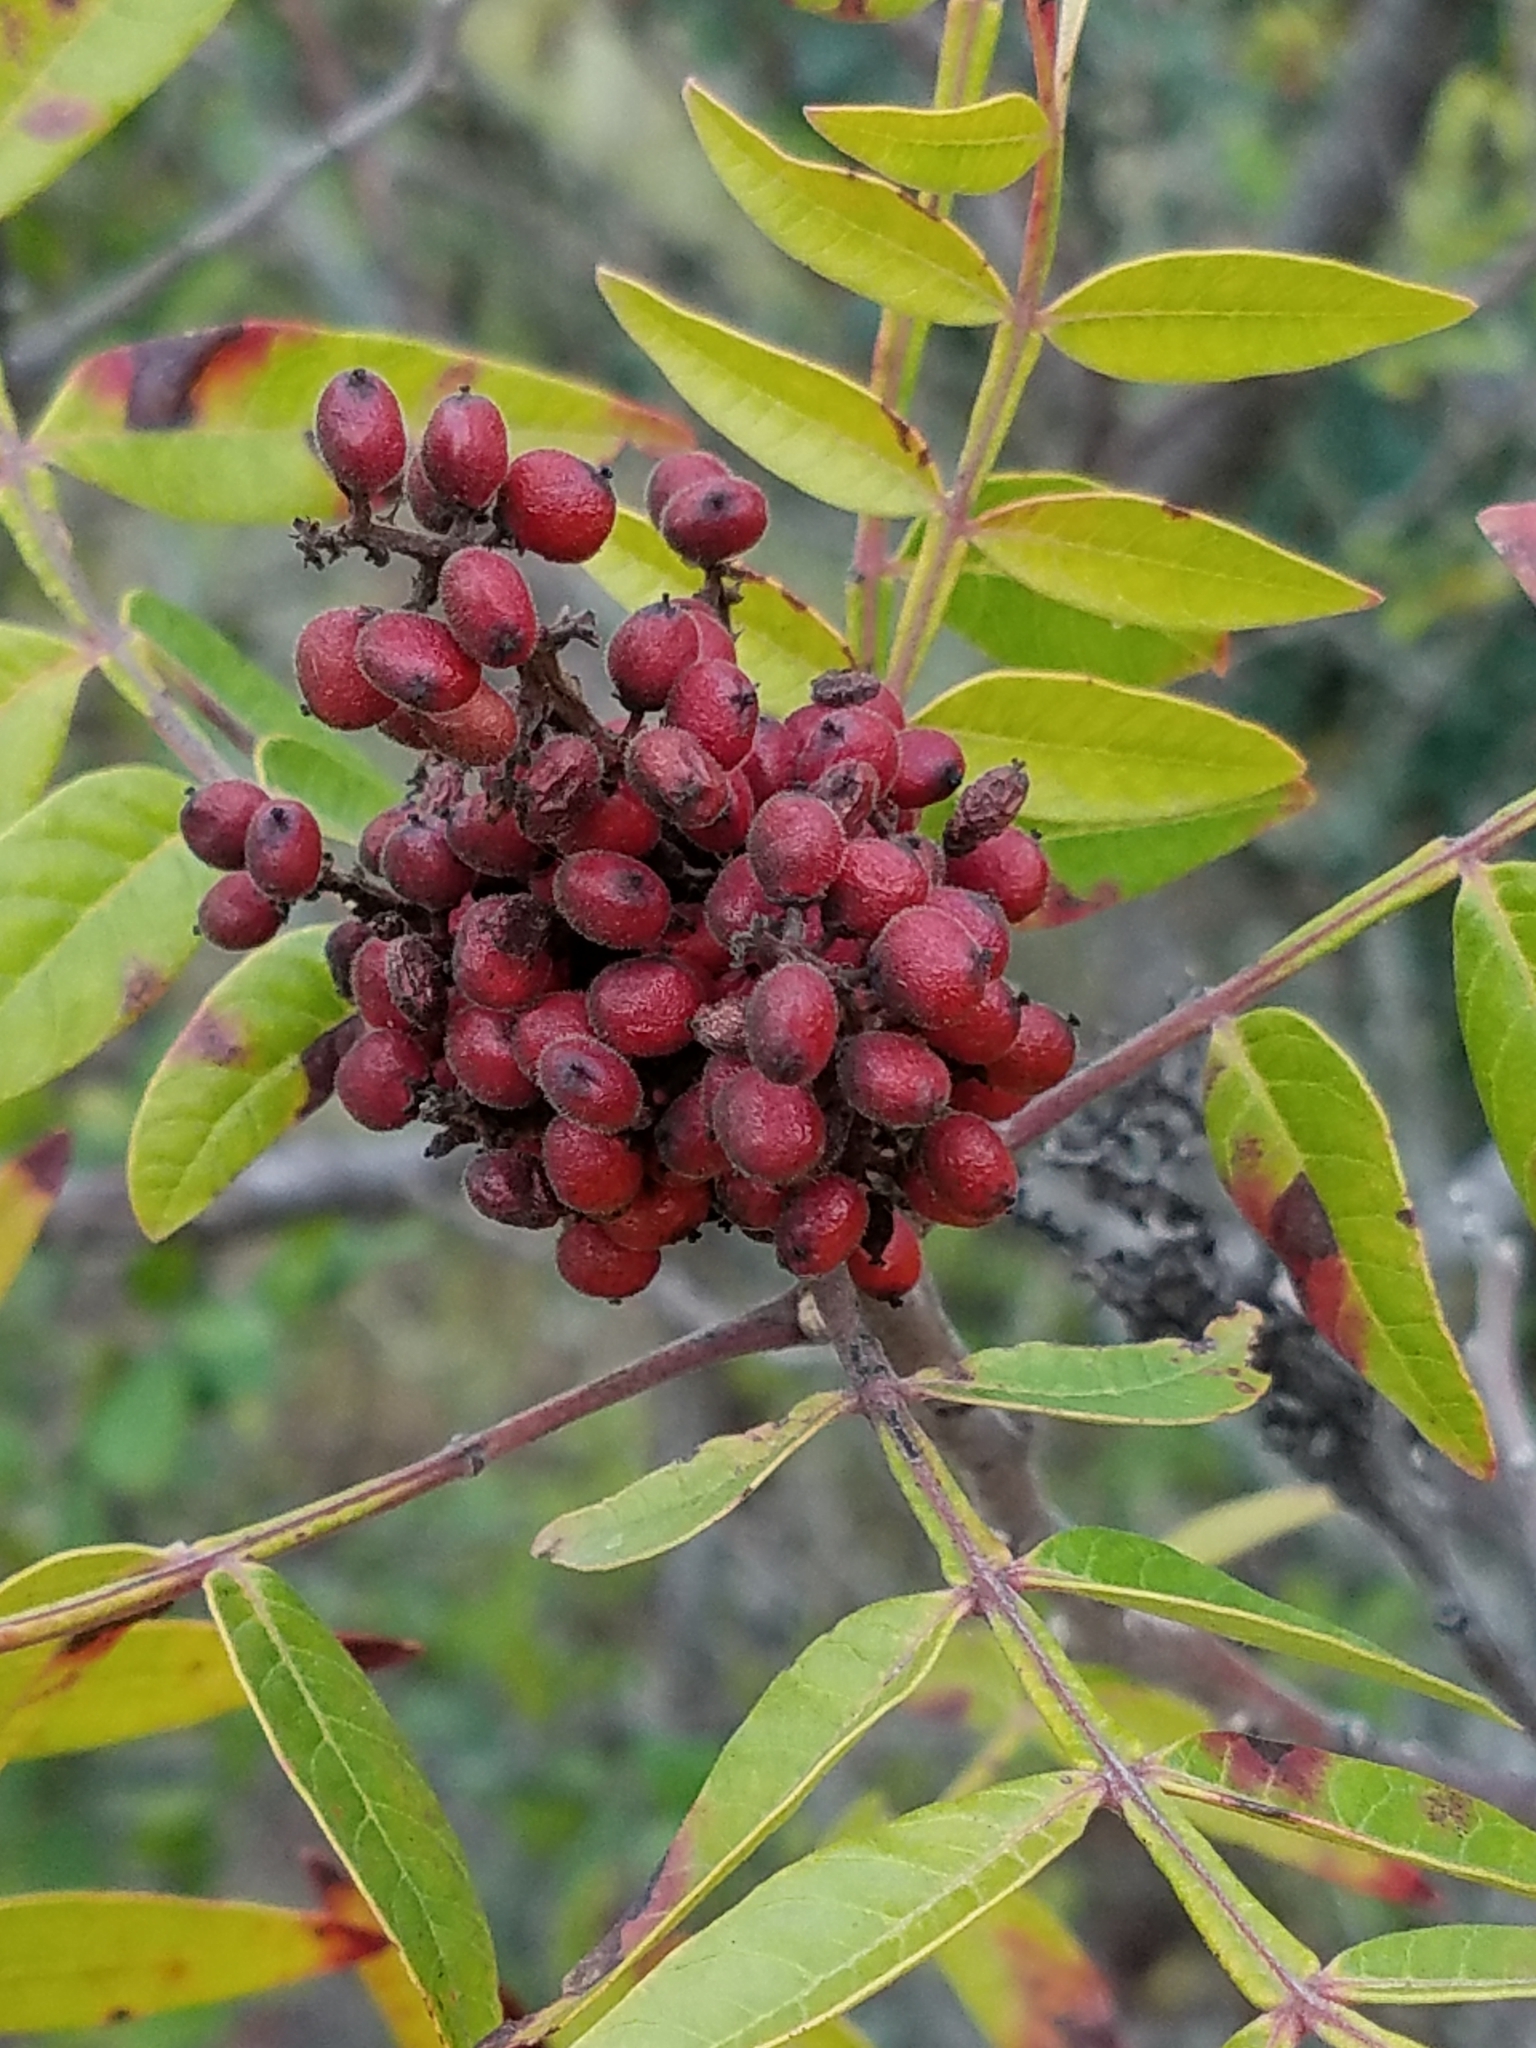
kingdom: Plantae
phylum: Tracheophyta
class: Magnoliopsida
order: Sapindales
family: Anacardiaceae
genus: Rhus
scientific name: Rhus lanceolata
